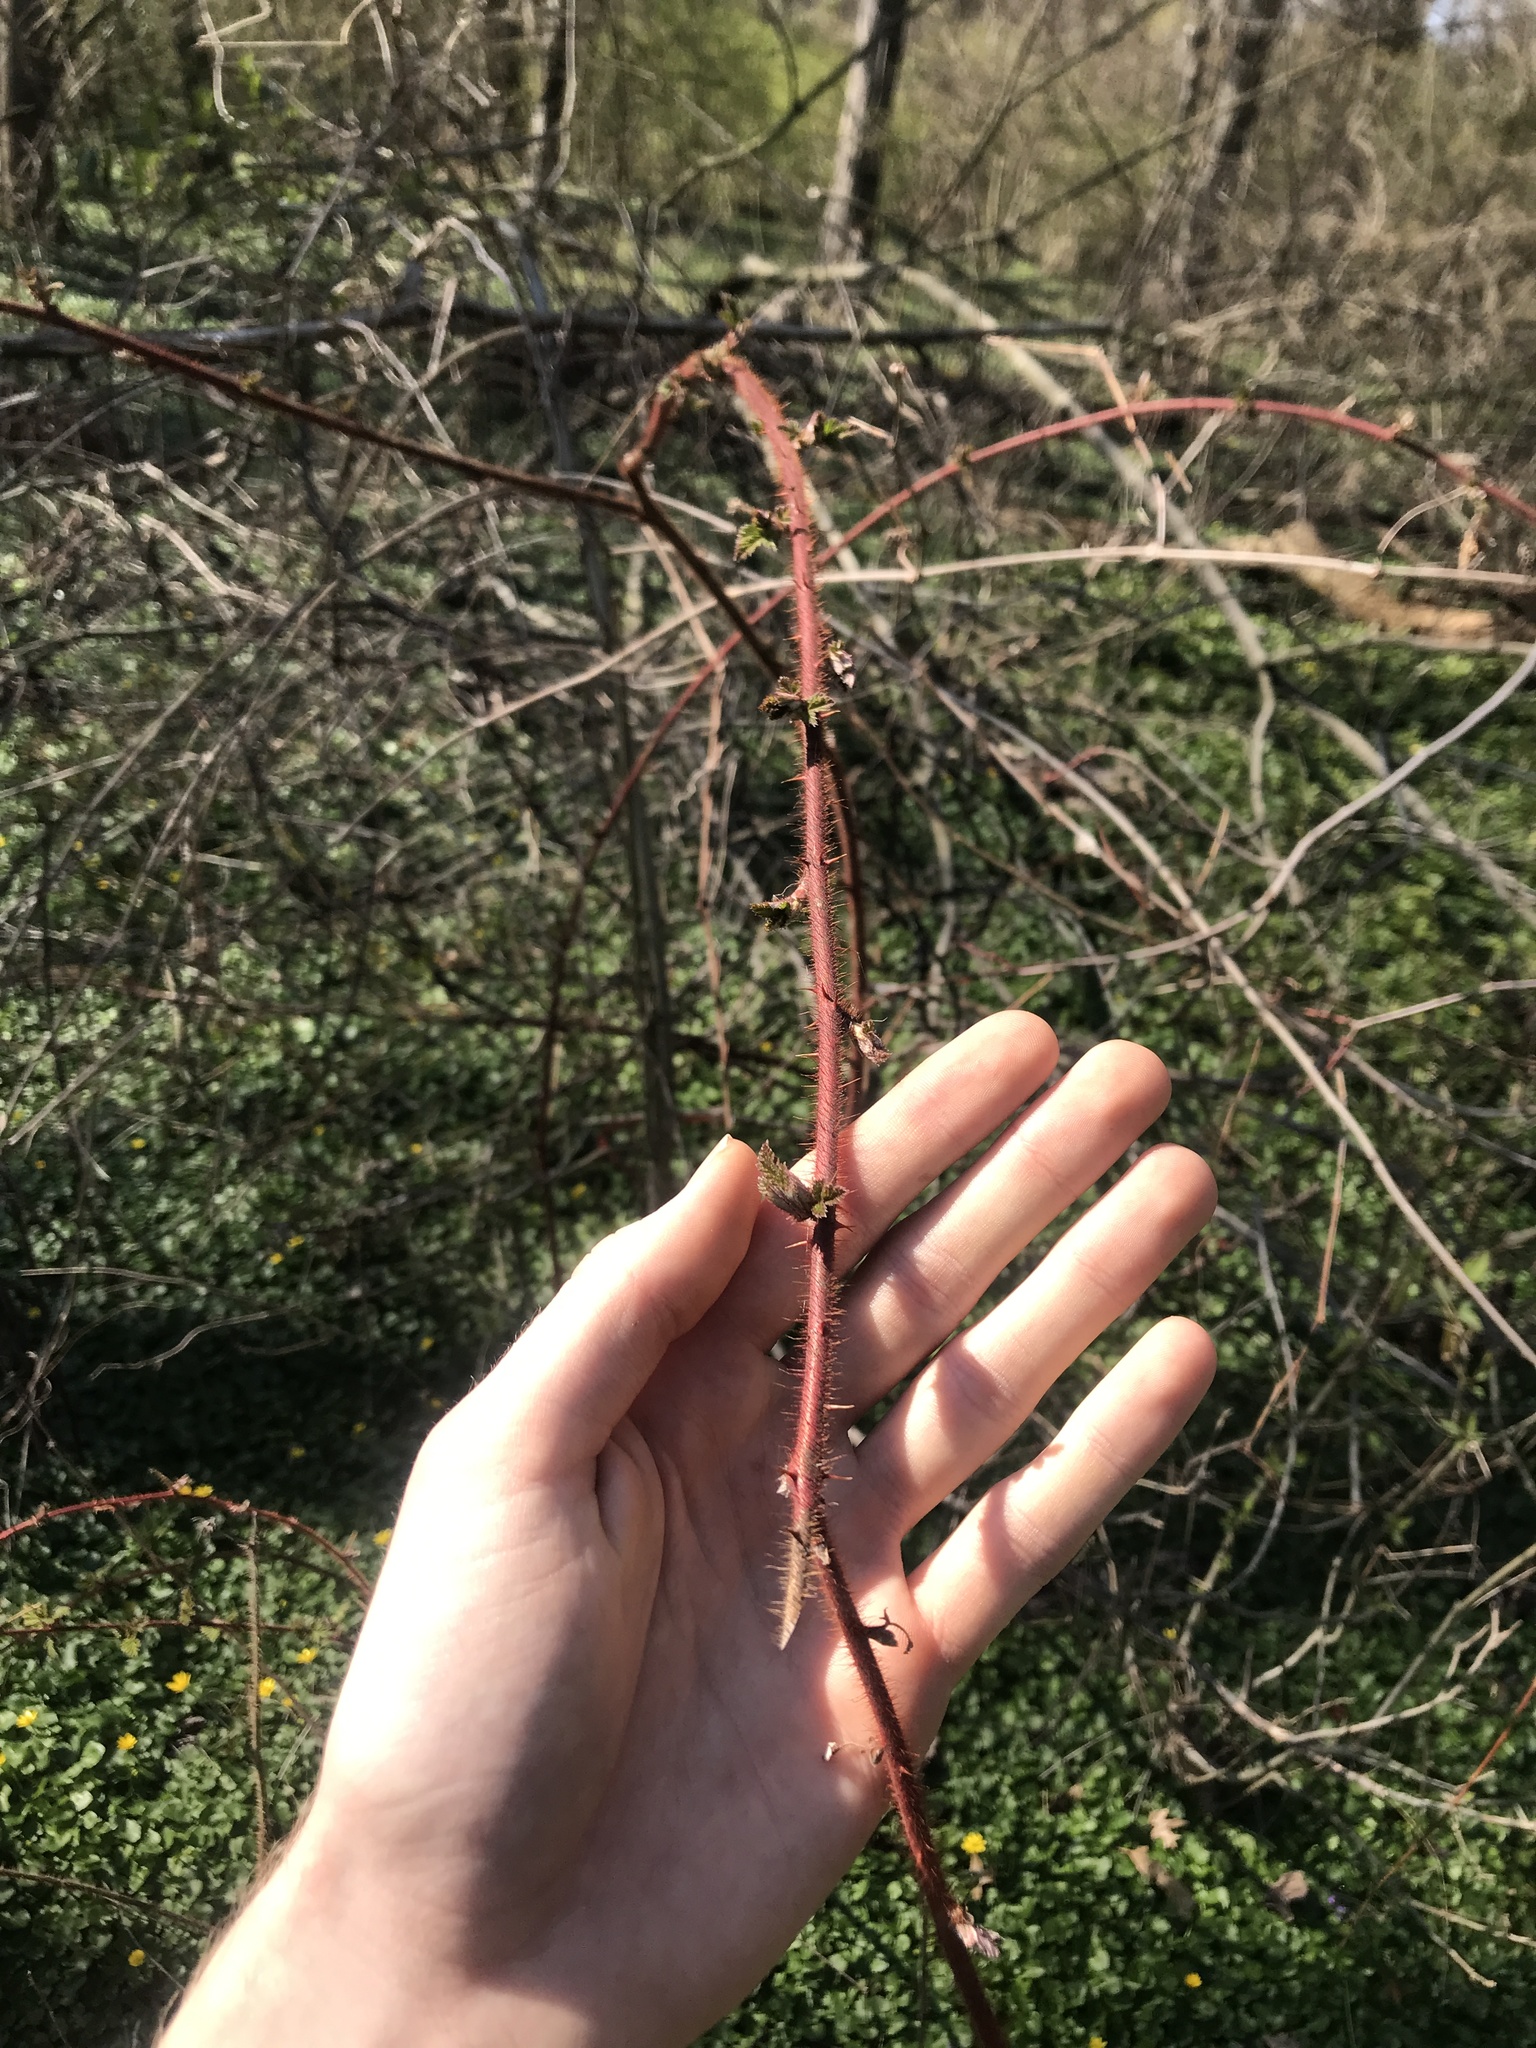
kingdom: Plantae
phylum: Tracheophyta
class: Magnoliopsida
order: Rosales
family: Rosaceae
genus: Rubus
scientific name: Rubus phoenicolasius
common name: Japanese wineberry
